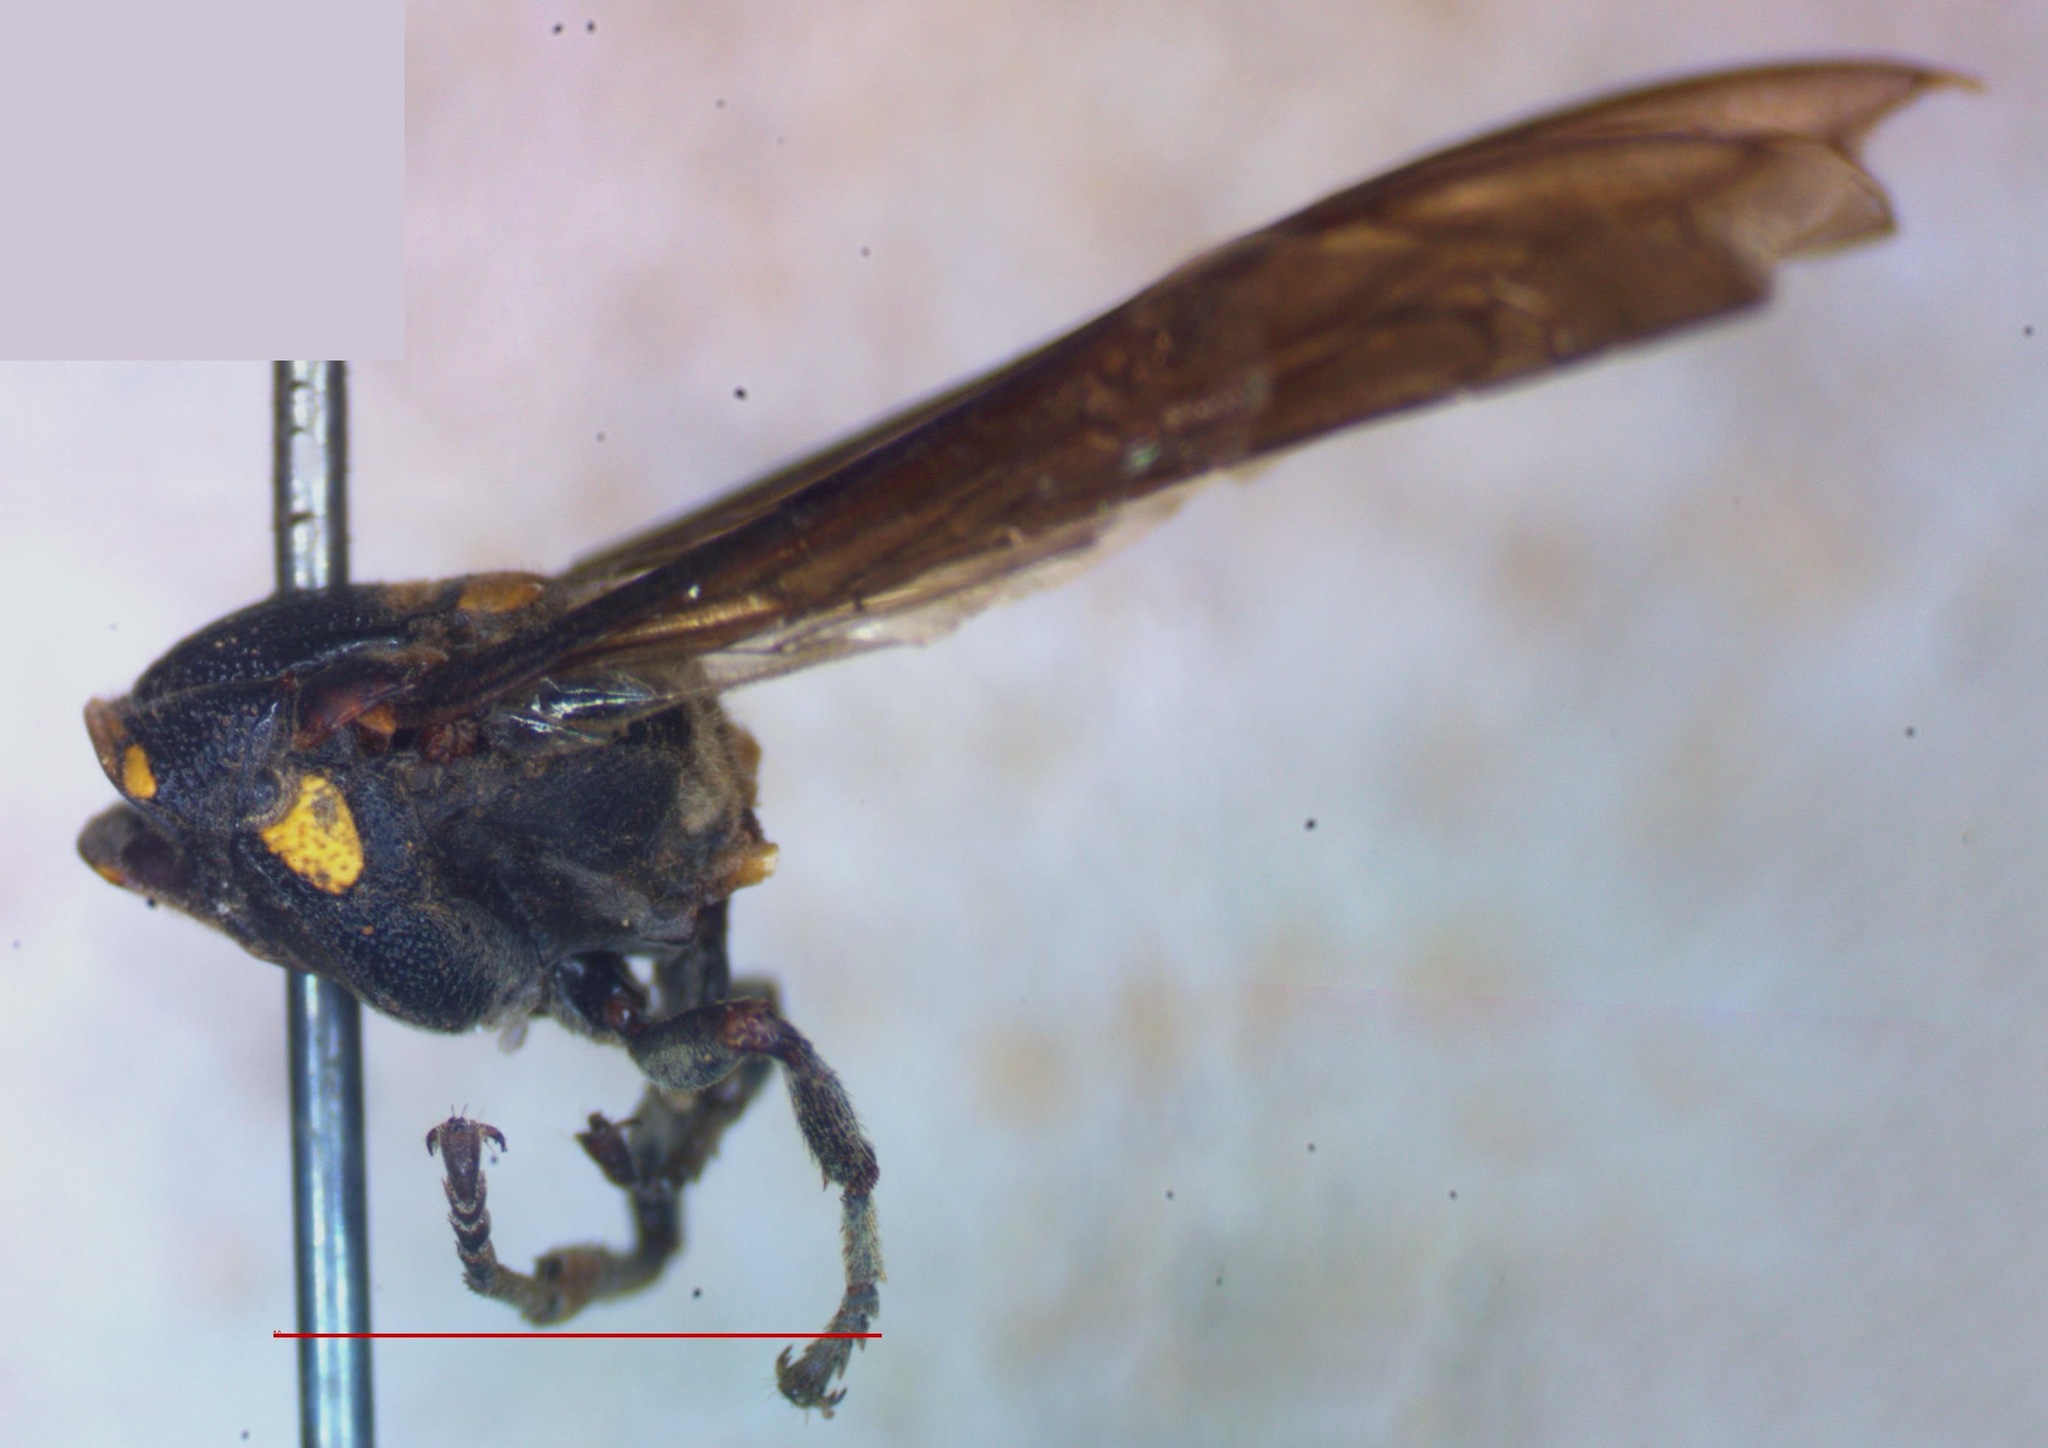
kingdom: Animalia
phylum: Arthropoda
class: Insecta
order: Hymenoptera
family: Eumenidae
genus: Zethus
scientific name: Zethus
